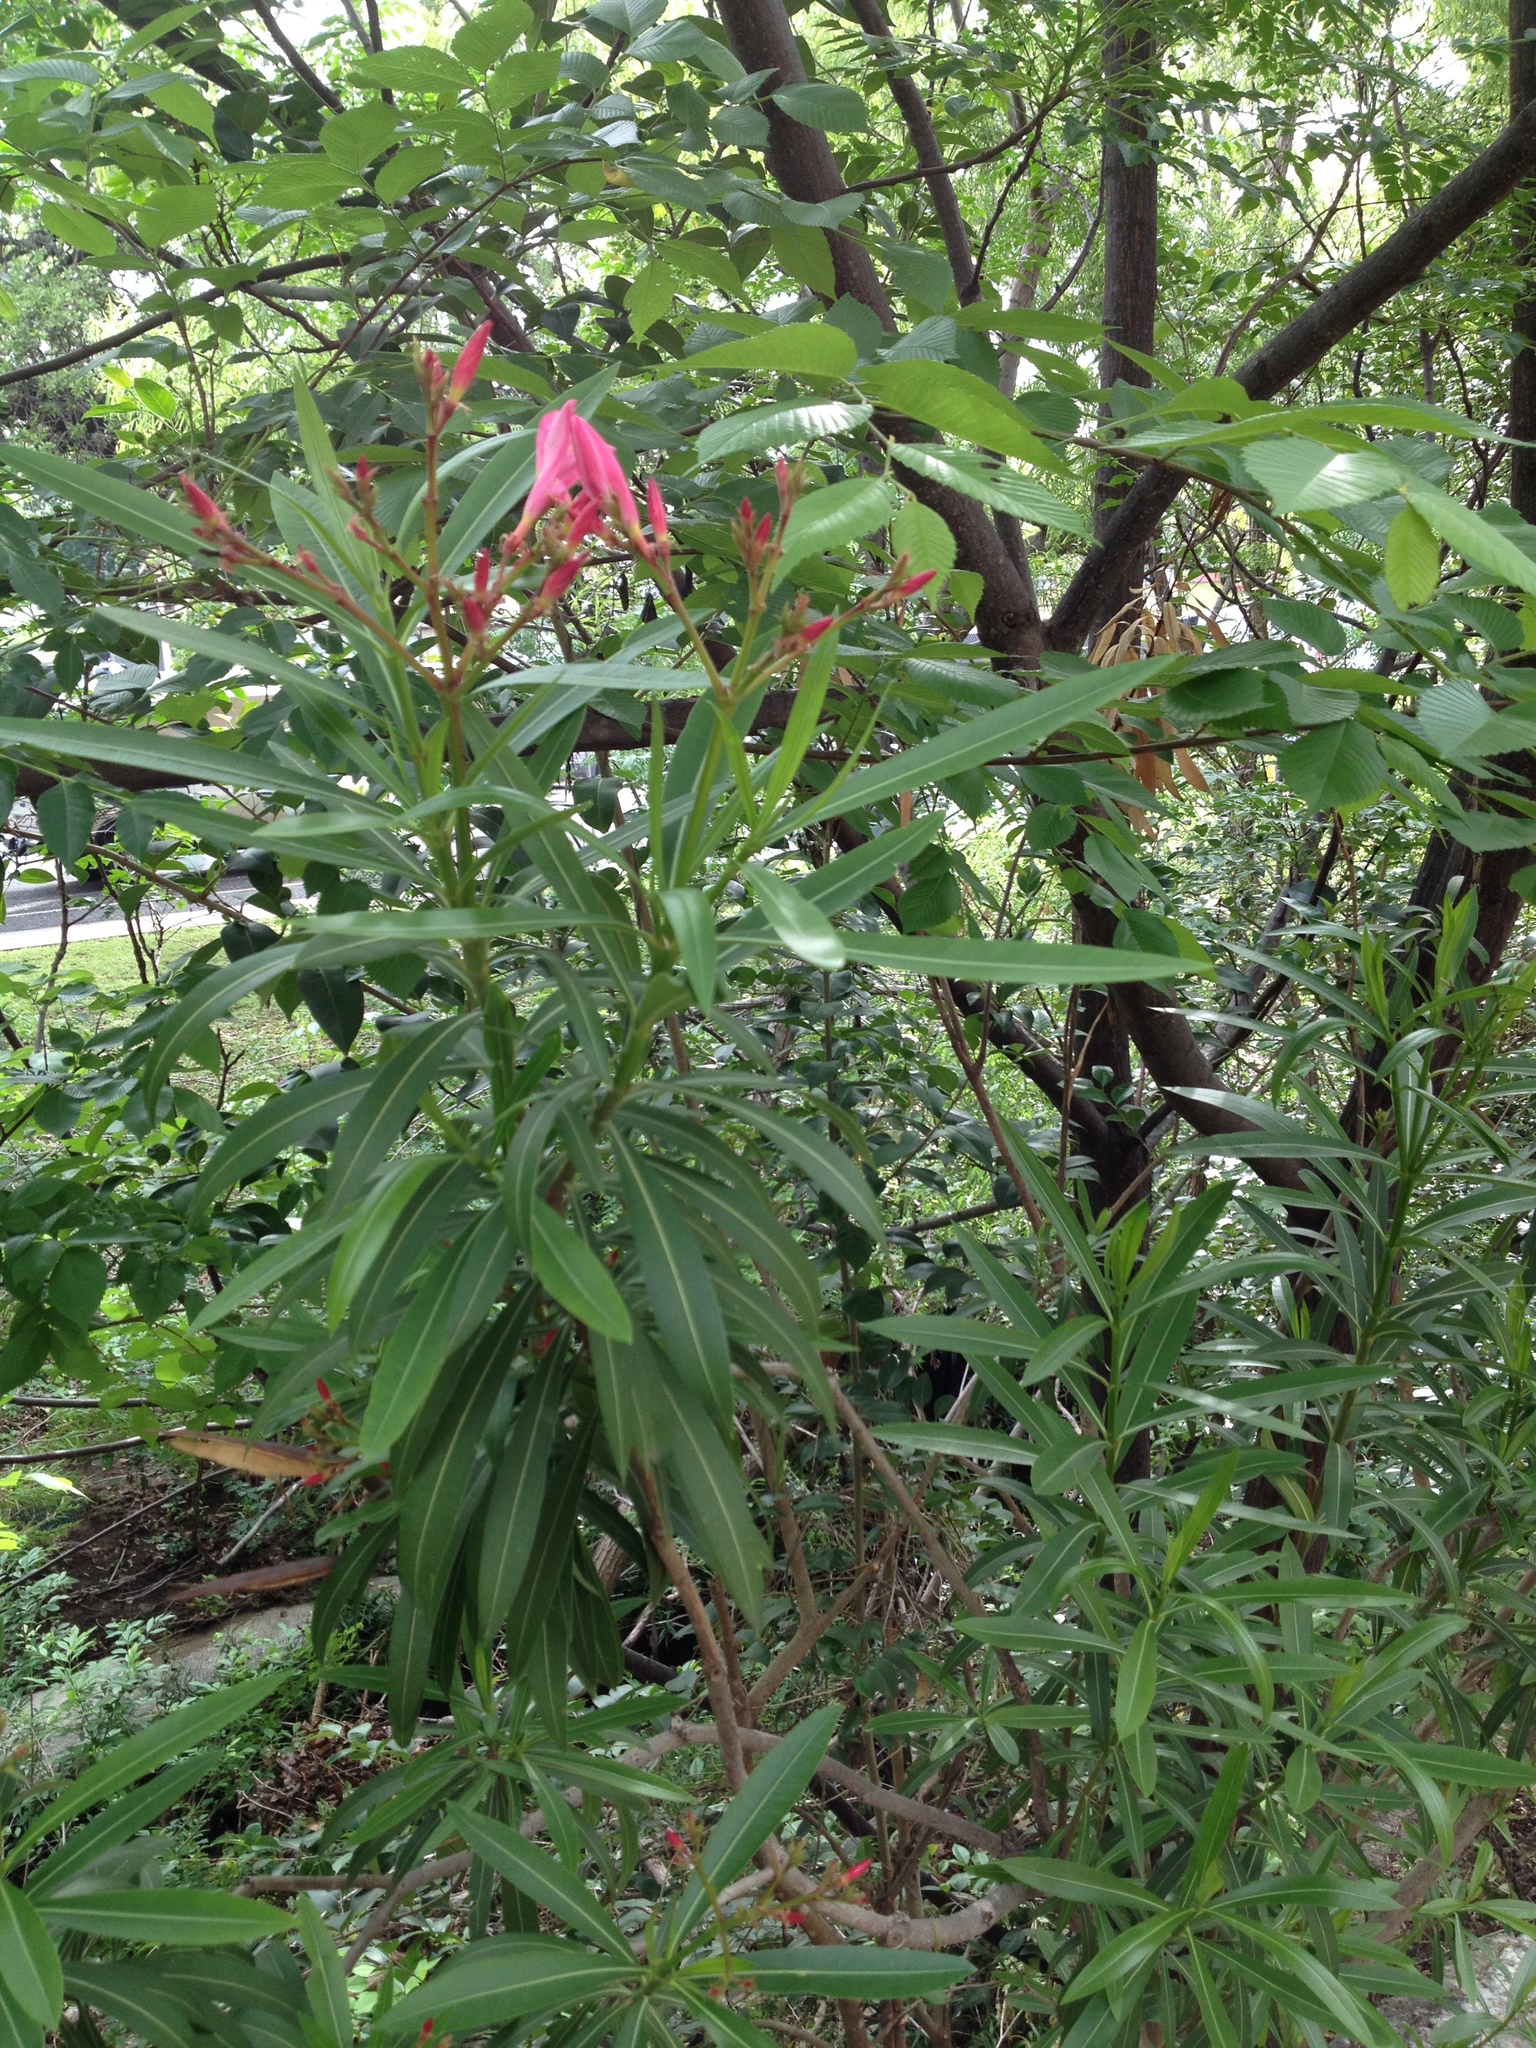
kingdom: Plantae
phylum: Tracheophyta
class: Magnoliopsida
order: Gentianales
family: Apocynaceae
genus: Nerium
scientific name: Nerium oleander
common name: Oleander
